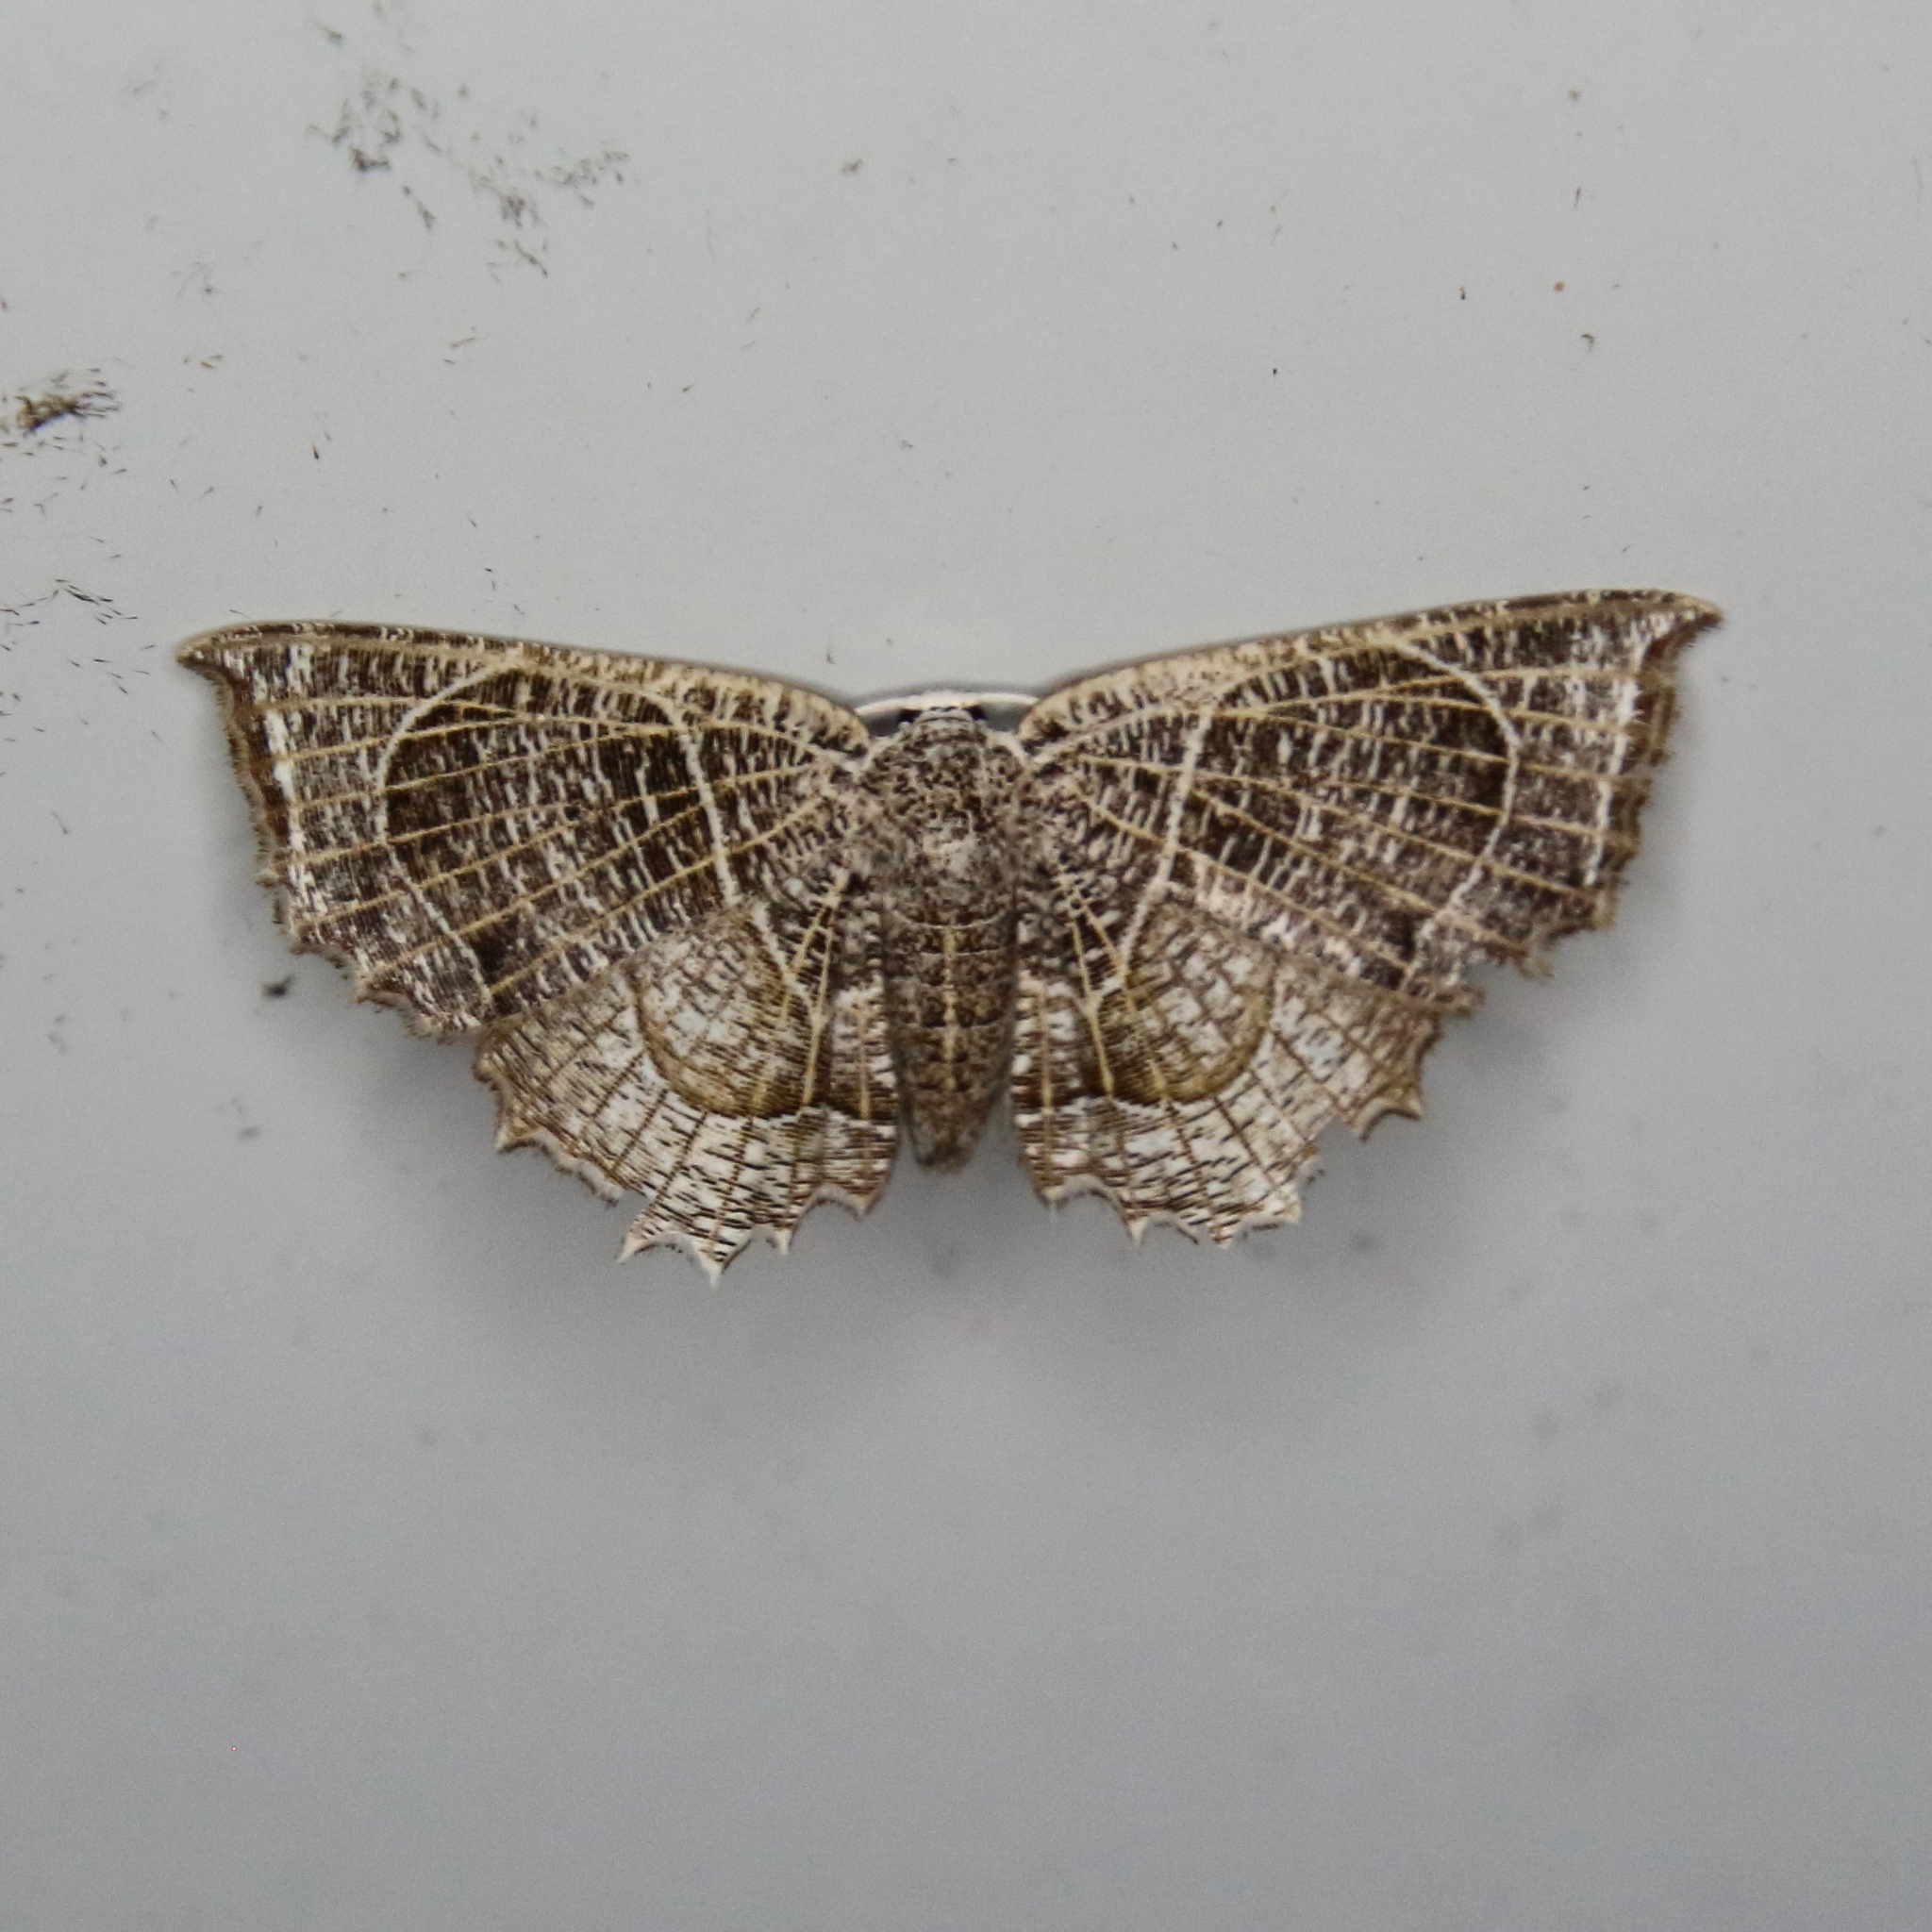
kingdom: Animalia
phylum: Arthropoda
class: Insecta
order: Lepidoptera
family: Uraniidae
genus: Epiplema
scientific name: Epiplema
